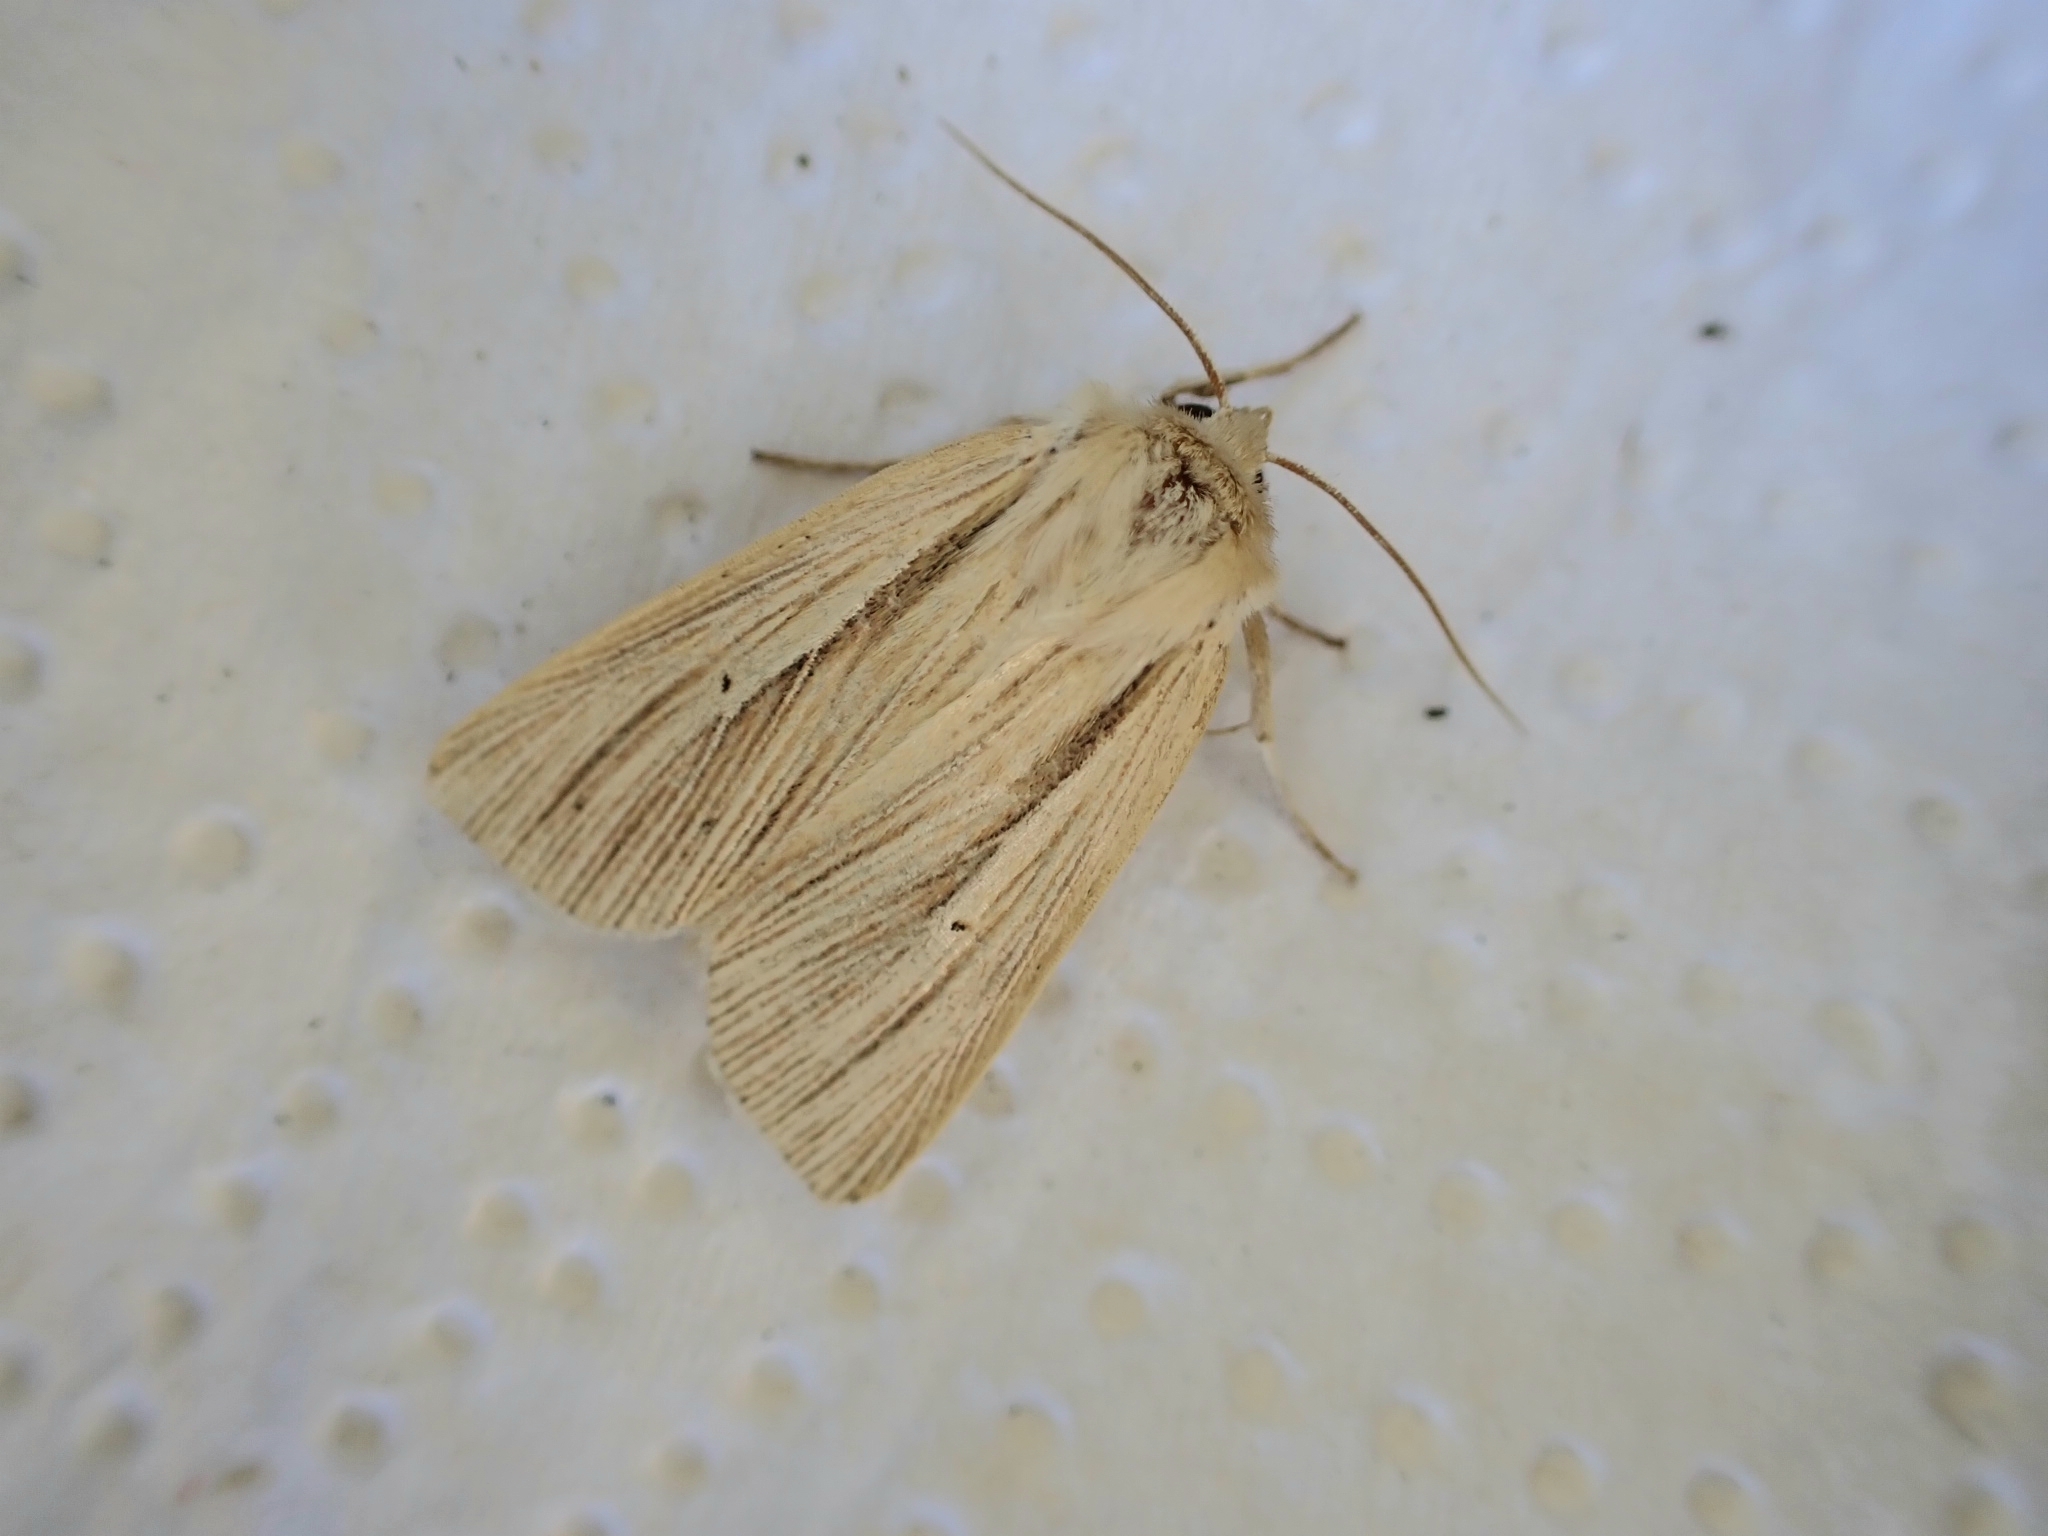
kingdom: Animalia
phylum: Arthropoda
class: Insecta
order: Lepidoptera
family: Noctuidae
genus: Mythimna
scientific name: Mythimna impura
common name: Smoky wainscot
